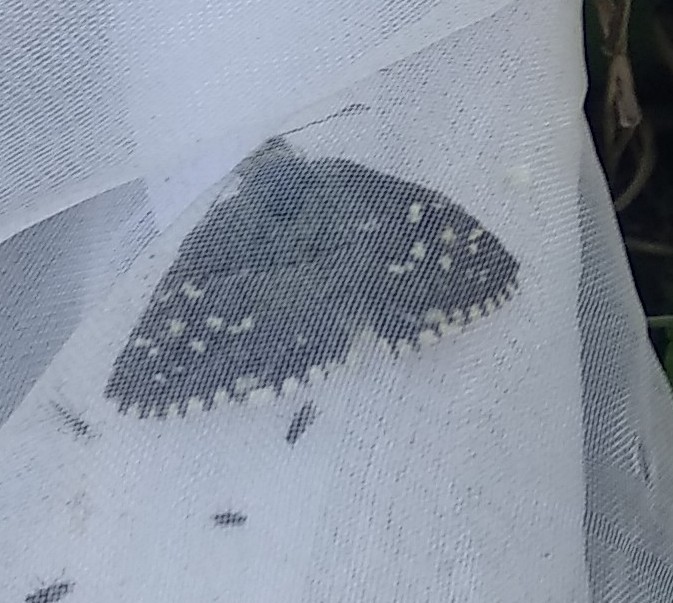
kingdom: Animalia
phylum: Arthropoda
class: Insecta
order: Lepidoptera
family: Hesperiidae
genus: Pyrgus
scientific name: Pyrgus malvoides
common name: Southern grizzled skipper
